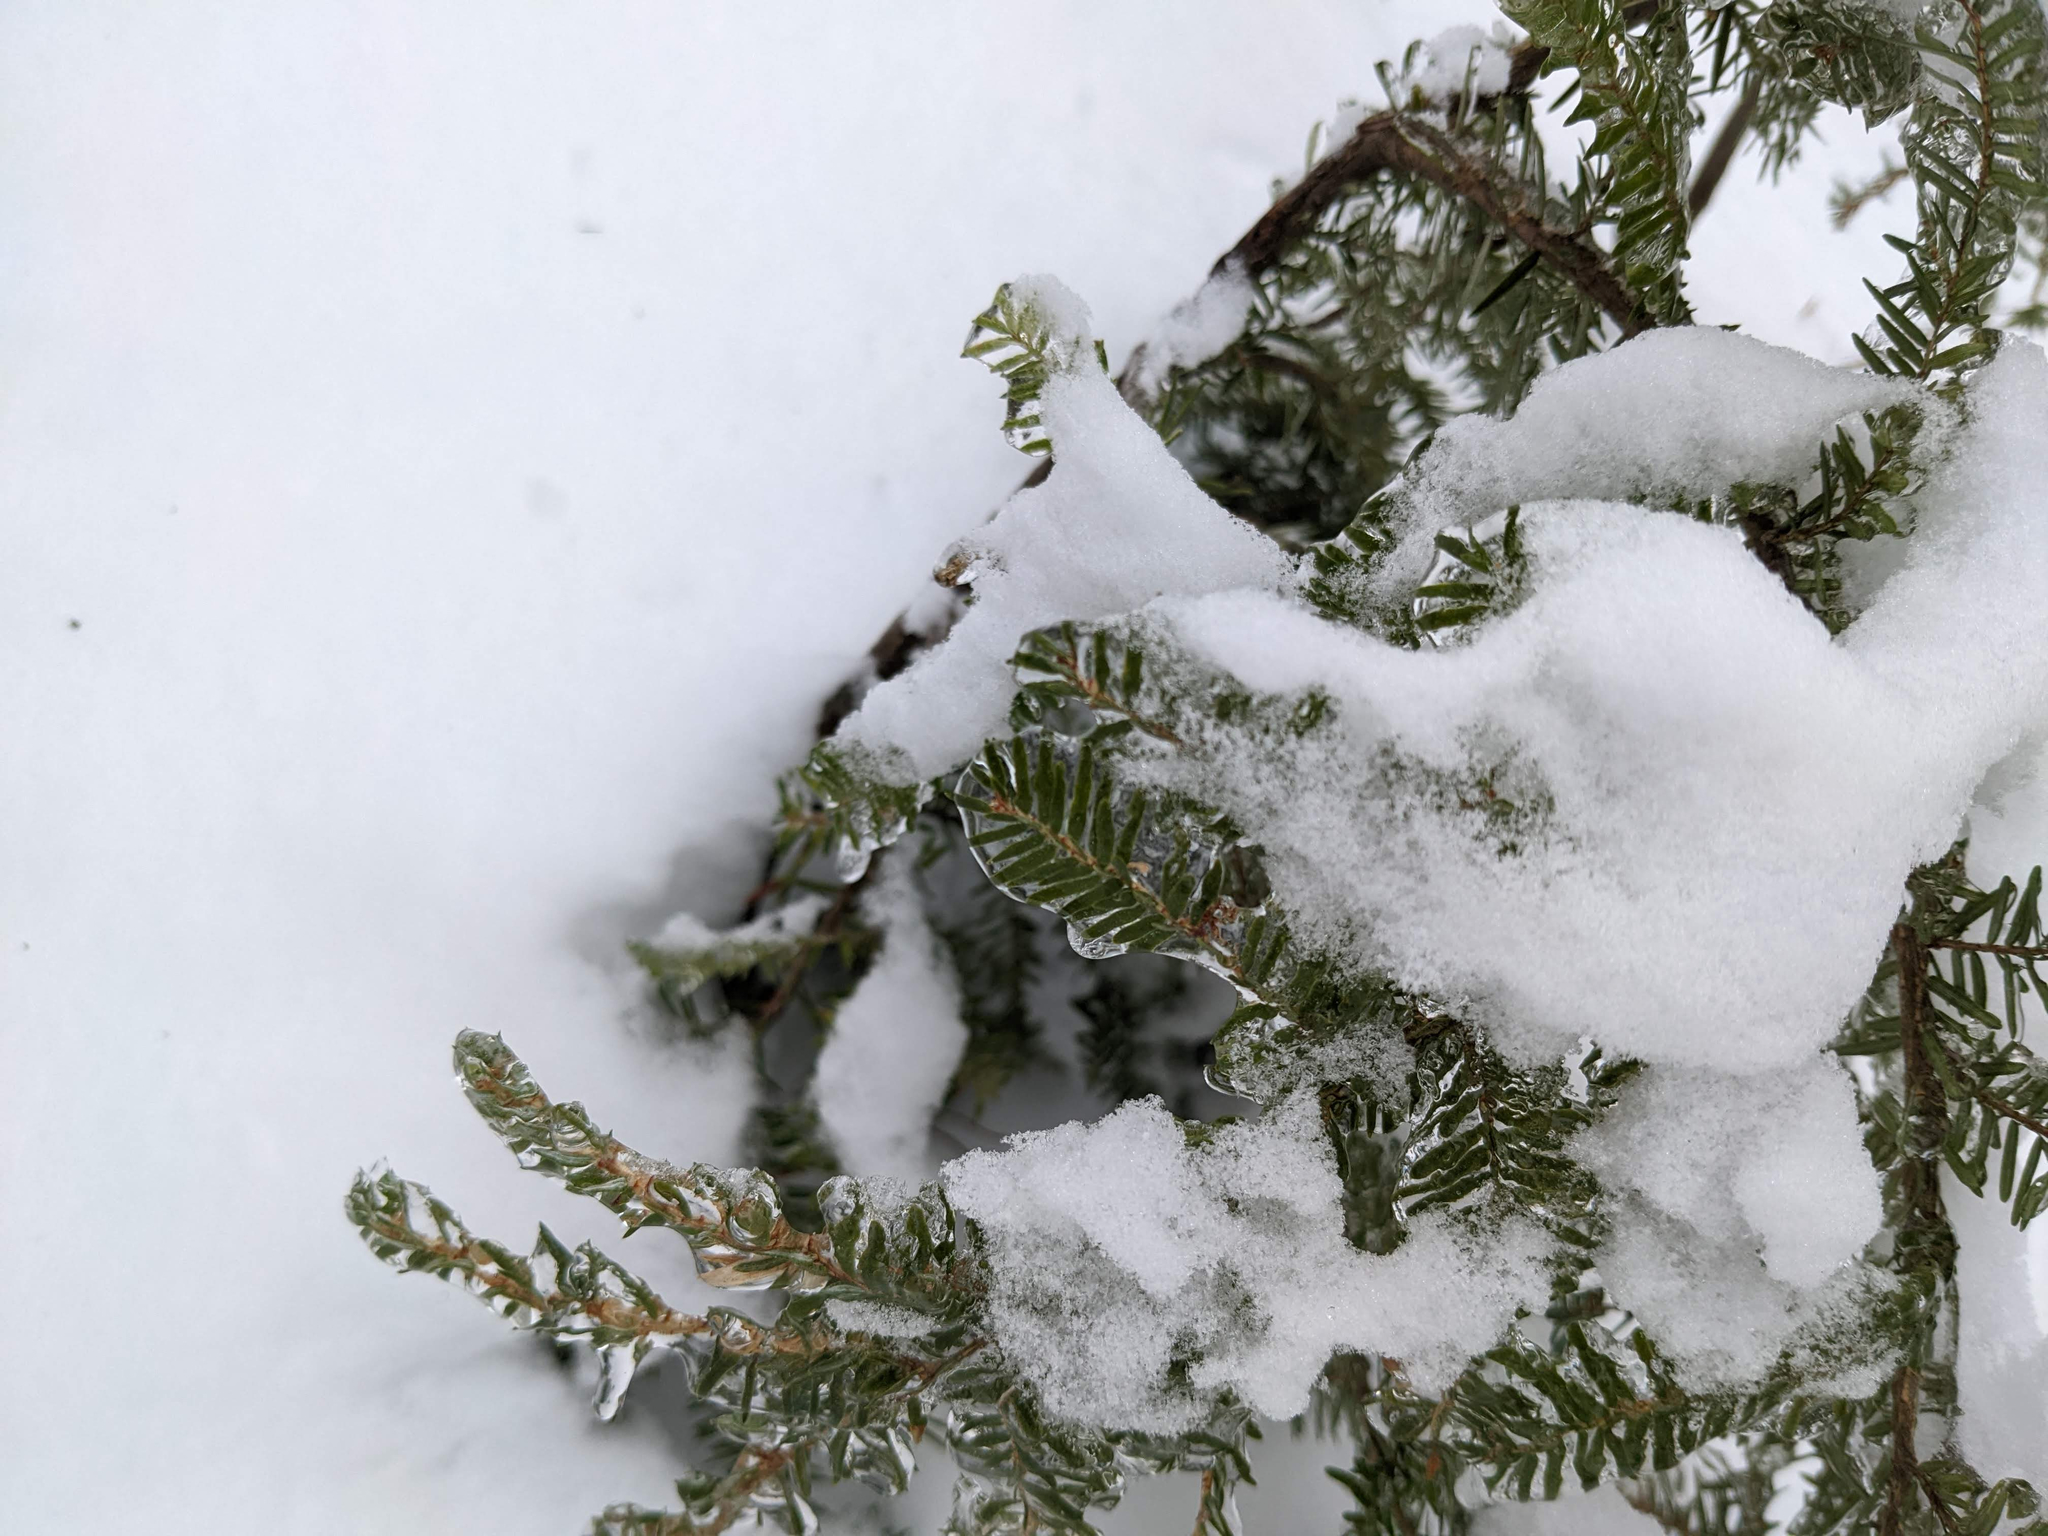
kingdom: Plantae
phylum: Tracheophyta
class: Pinopsida
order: Pinales
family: Pinaceae
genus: Tsuga
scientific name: Tsuga canadensis
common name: Eastern hemlock
